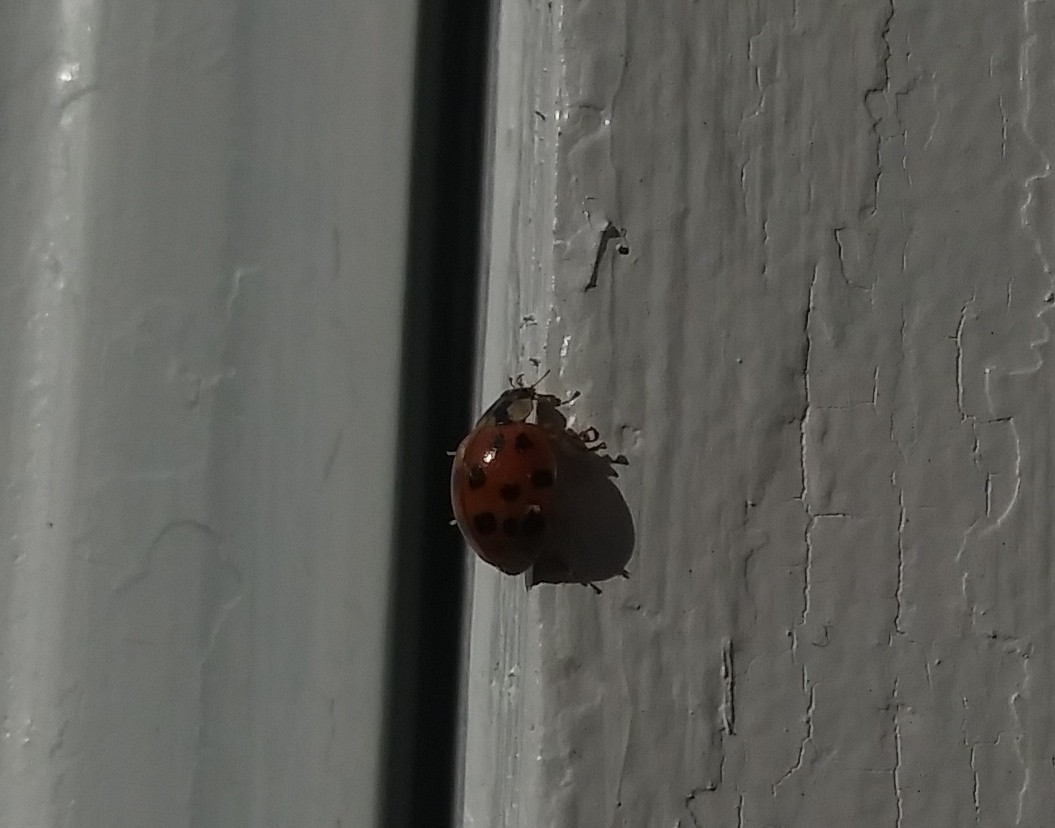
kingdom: Animalia
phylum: Arthropoda
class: Insecta
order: Coleoptera
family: Coccinellidae
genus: Harmonia
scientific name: Harmonia axyridis
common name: Harlequin ladybird
